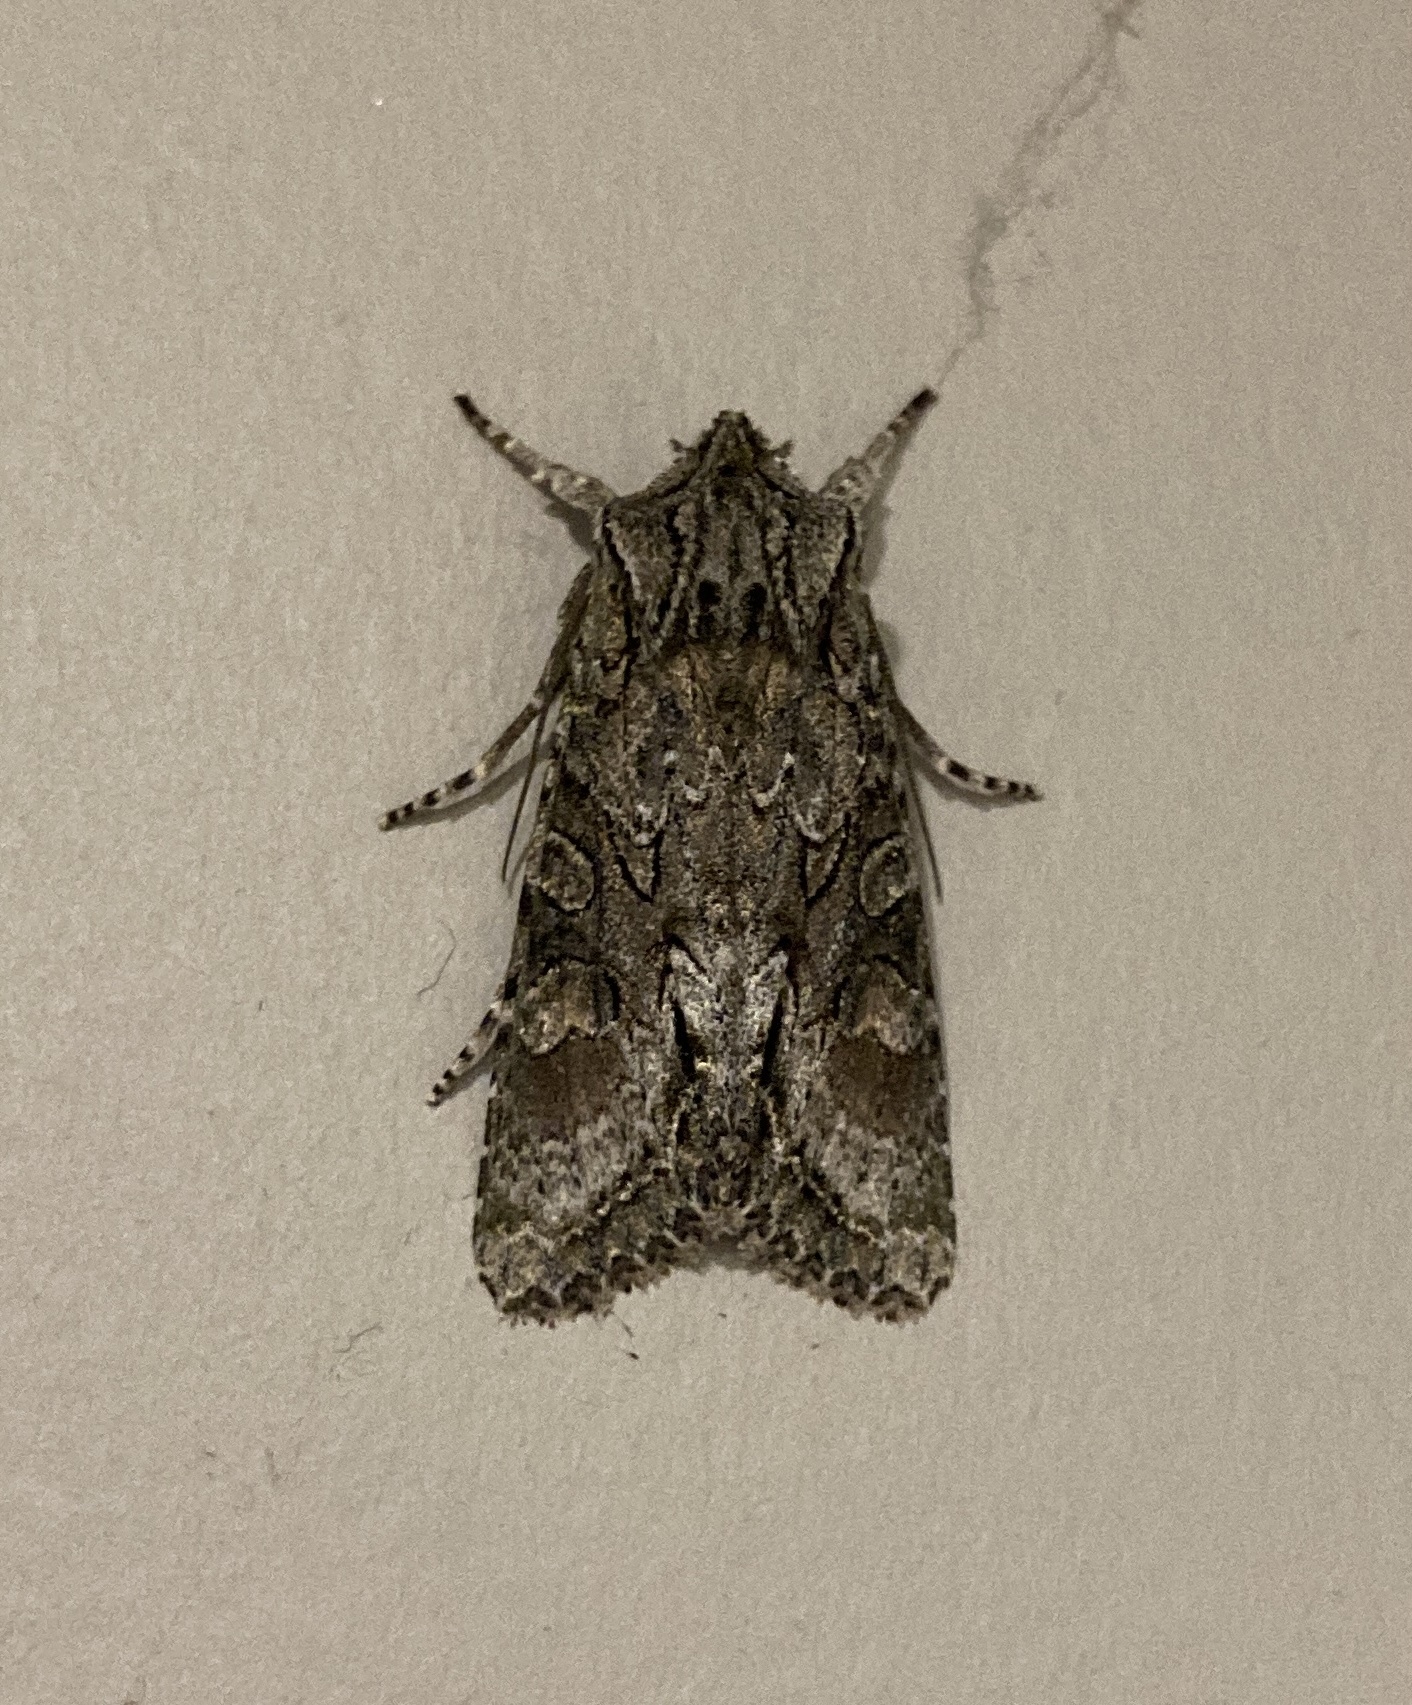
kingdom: Animalia
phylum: Arthropoda
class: Insecta
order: Lepidoptera
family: Noctuidae
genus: Ichneutica
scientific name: Ichneutica mutans
